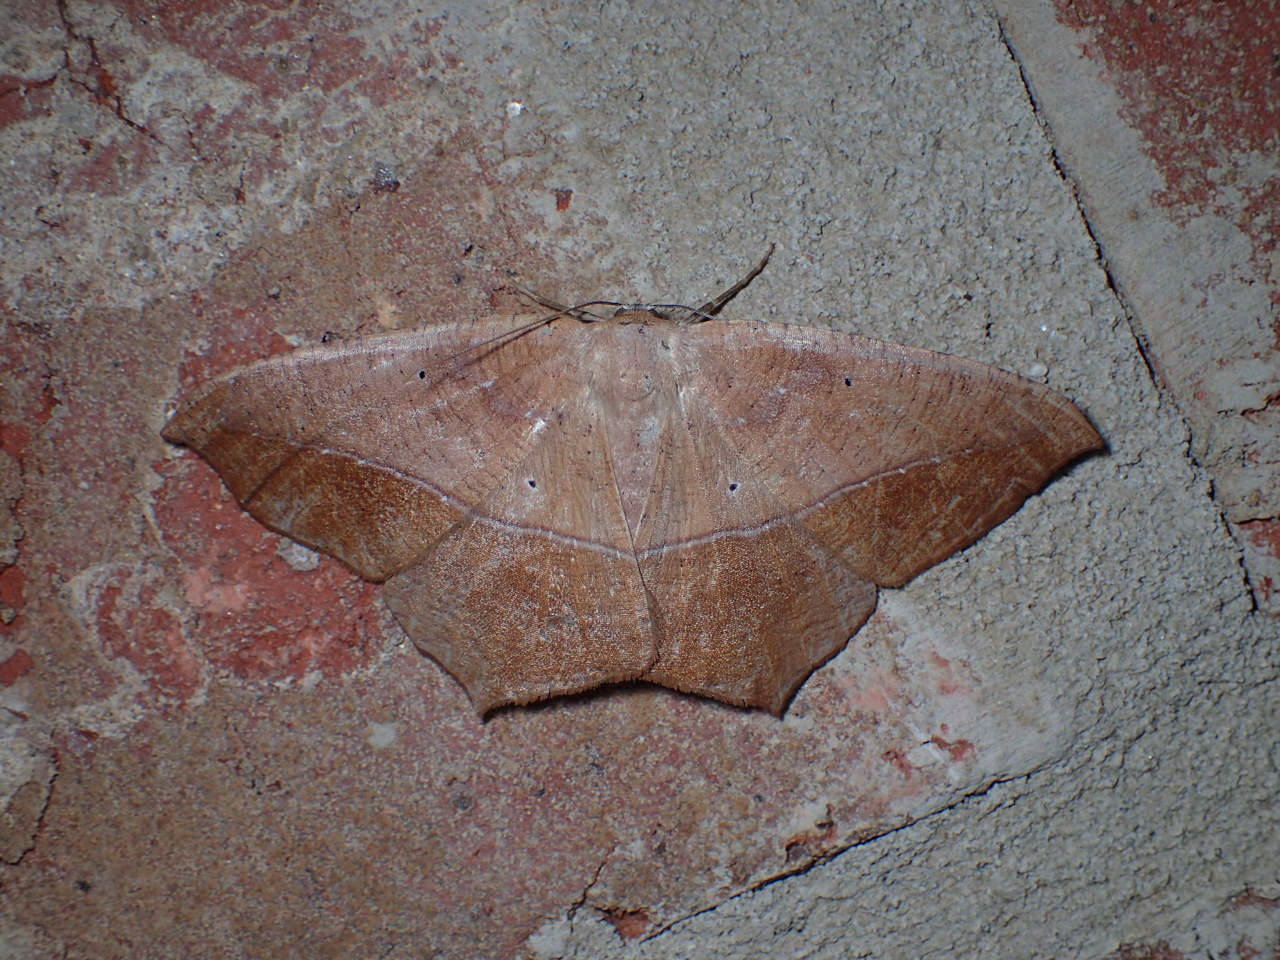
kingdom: Animalia
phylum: Arthropoda
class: Insecta
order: Lepidoptera
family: Geometridae
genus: Prochoerodes
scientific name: Prochoerodes lineola
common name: Large maple spanworm
